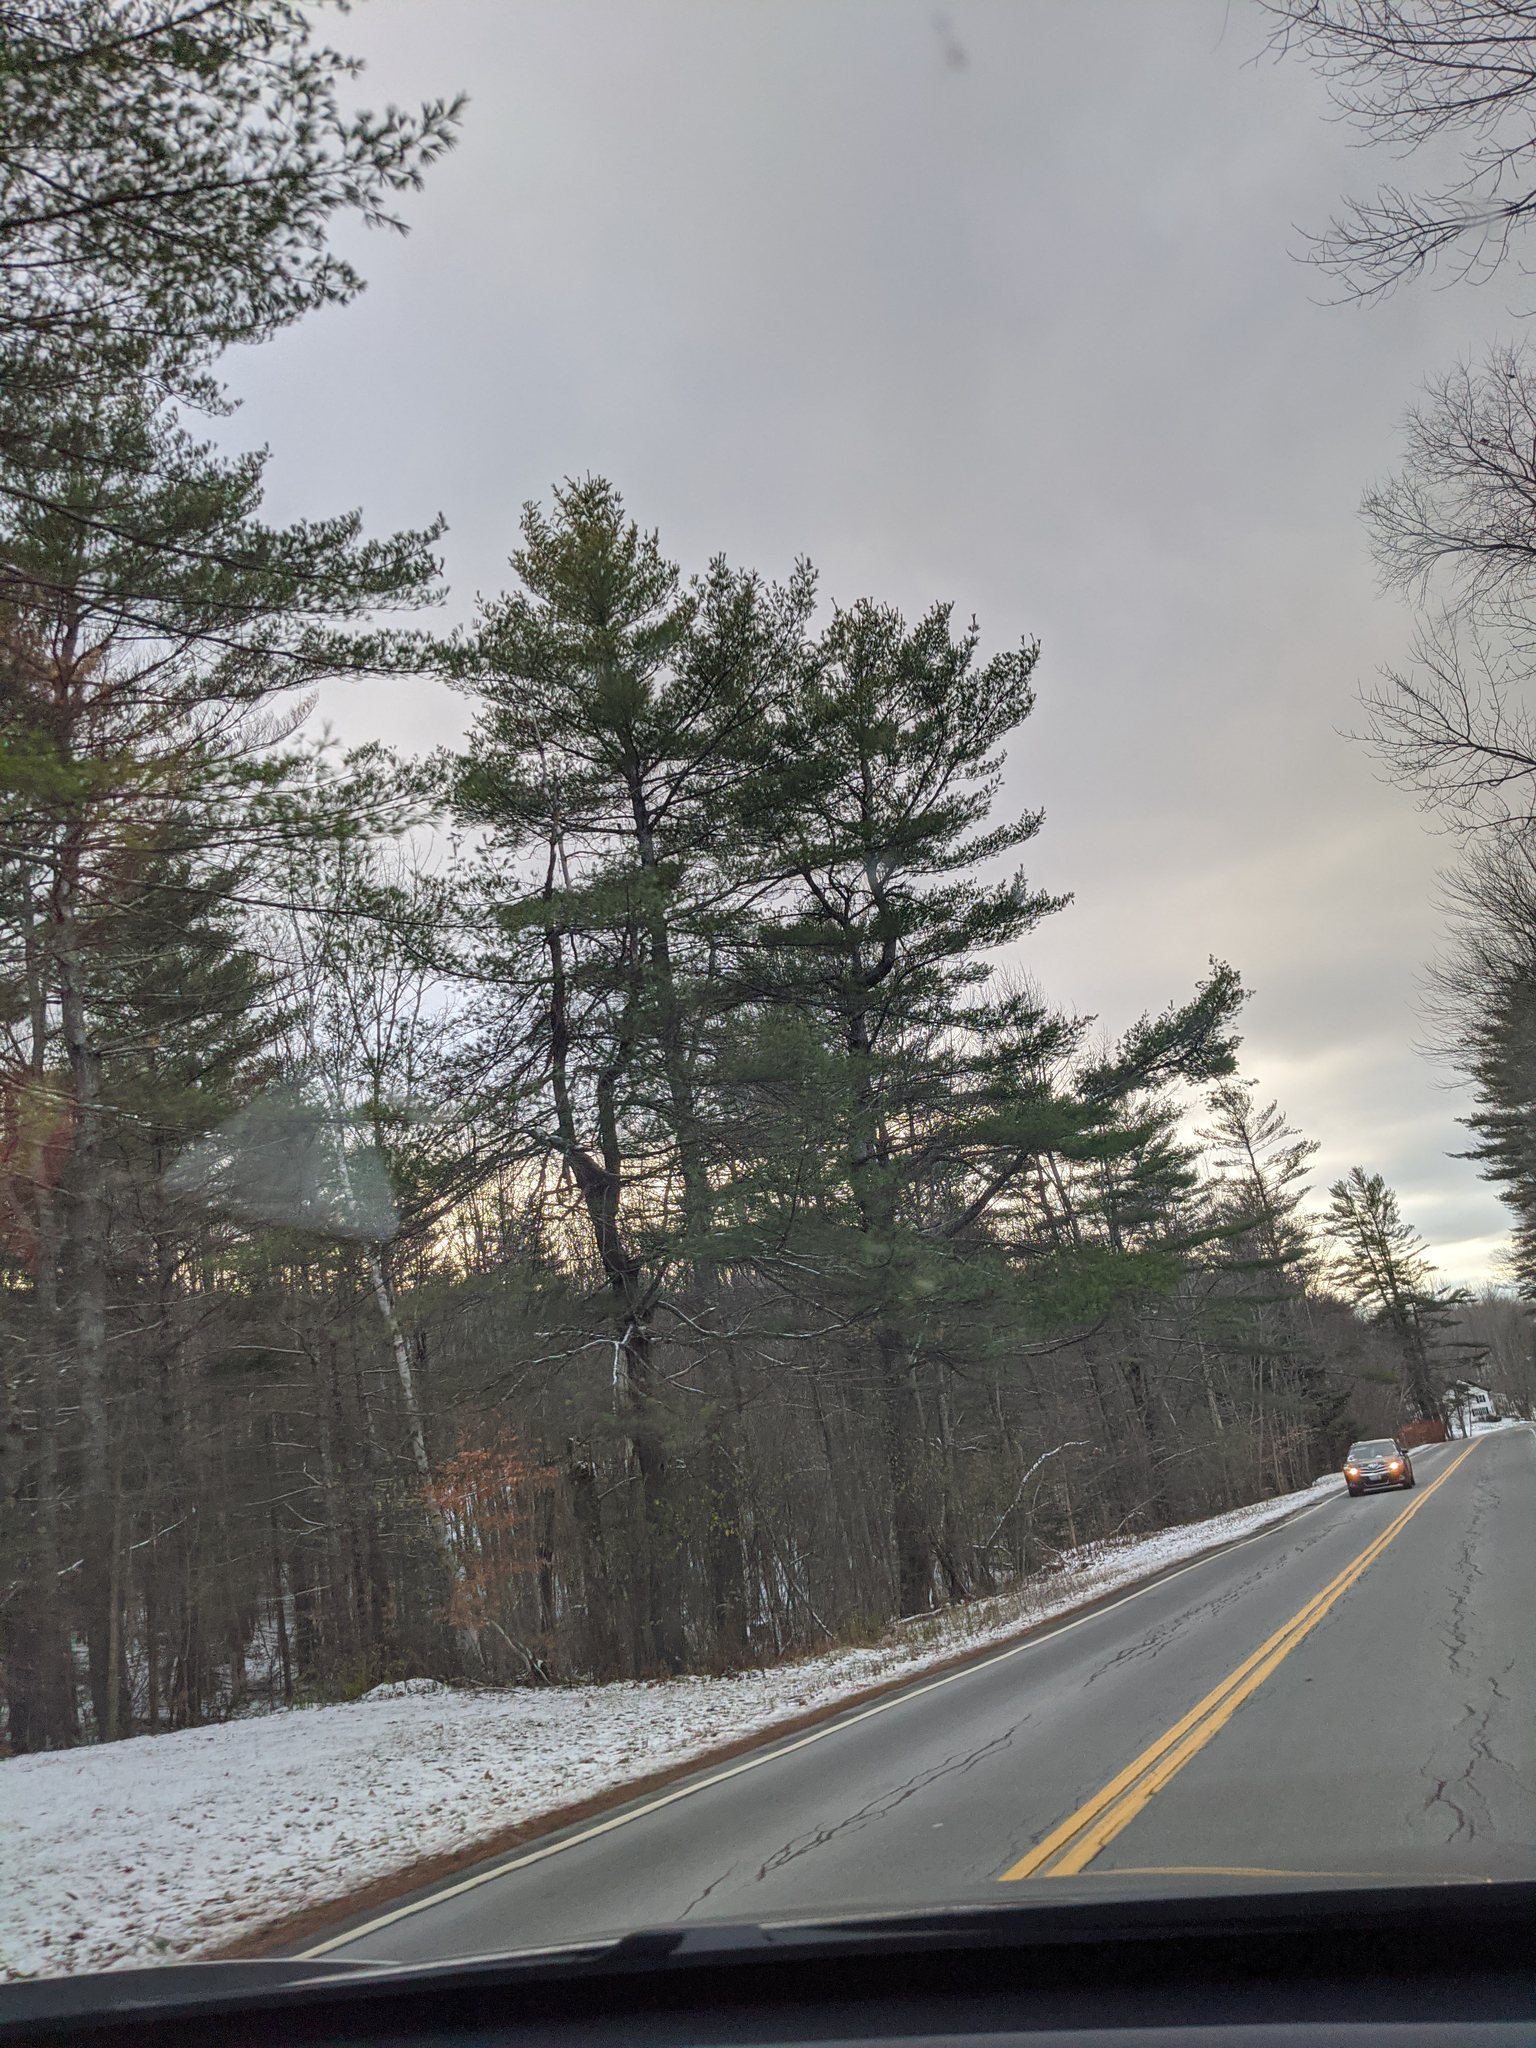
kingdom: Plantae
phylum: Tracheophyta
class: Pinopsida
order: Pinales
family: Pinaceae
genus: Pinus
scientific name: Pinus strobus
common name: Weymouth pine
